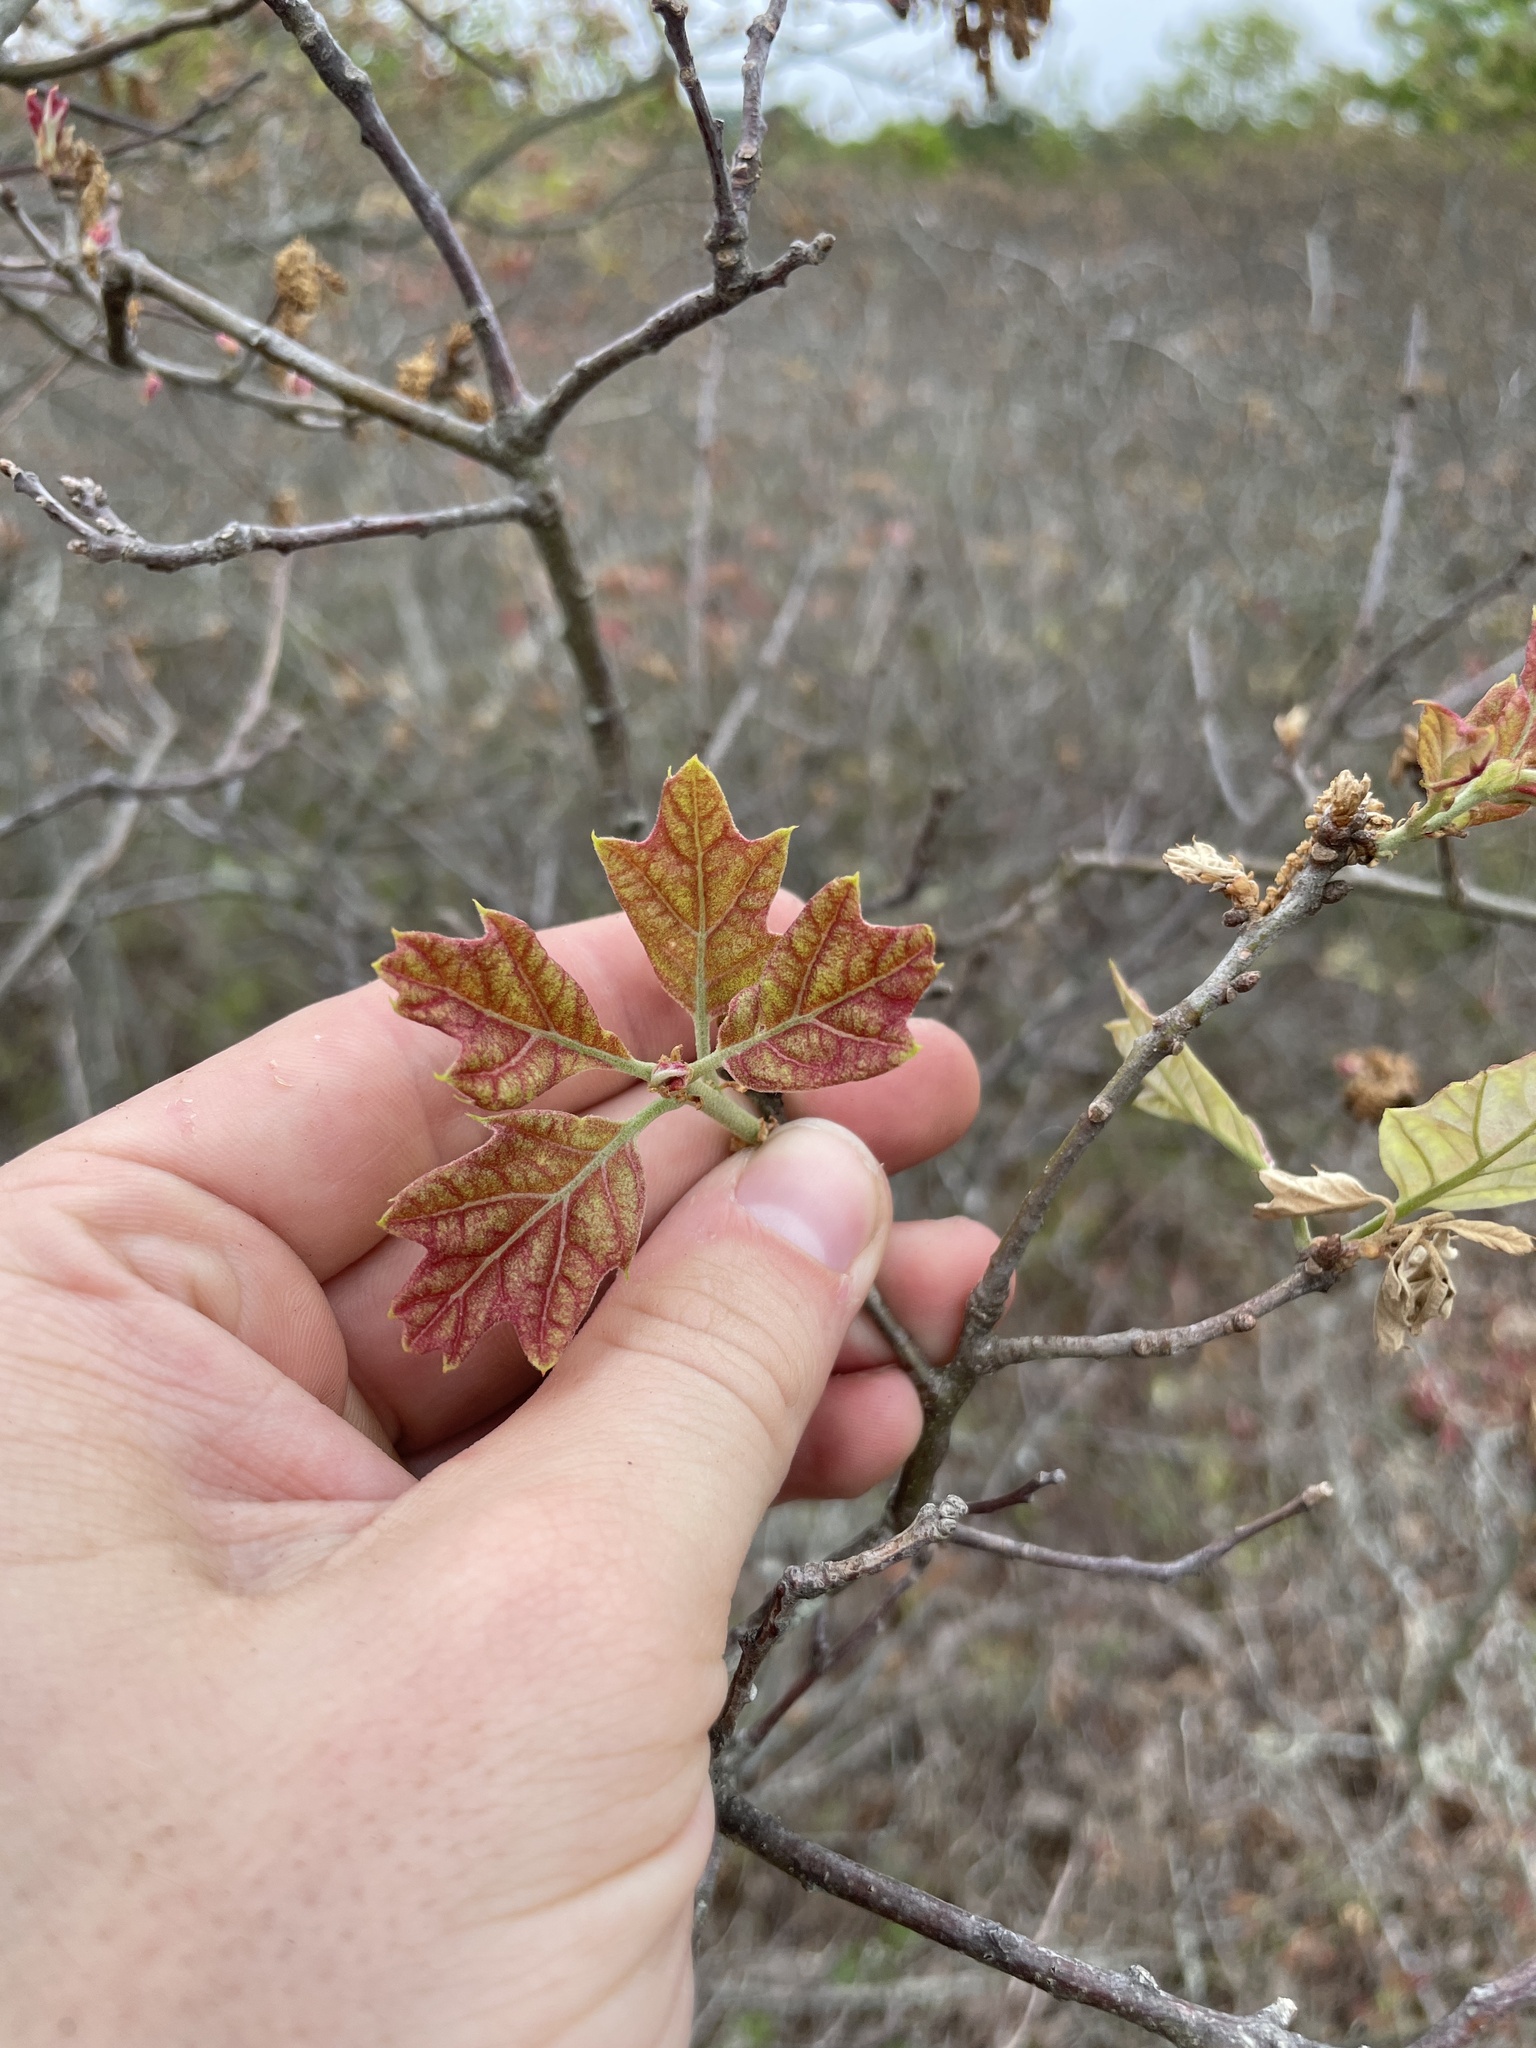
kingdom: Plantae
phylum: Tracheophyta
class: Magnoliopsida
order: Fagales
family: Fagaceae
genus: Quercus
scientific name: Quercus ilicifolia
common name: Bear oak
